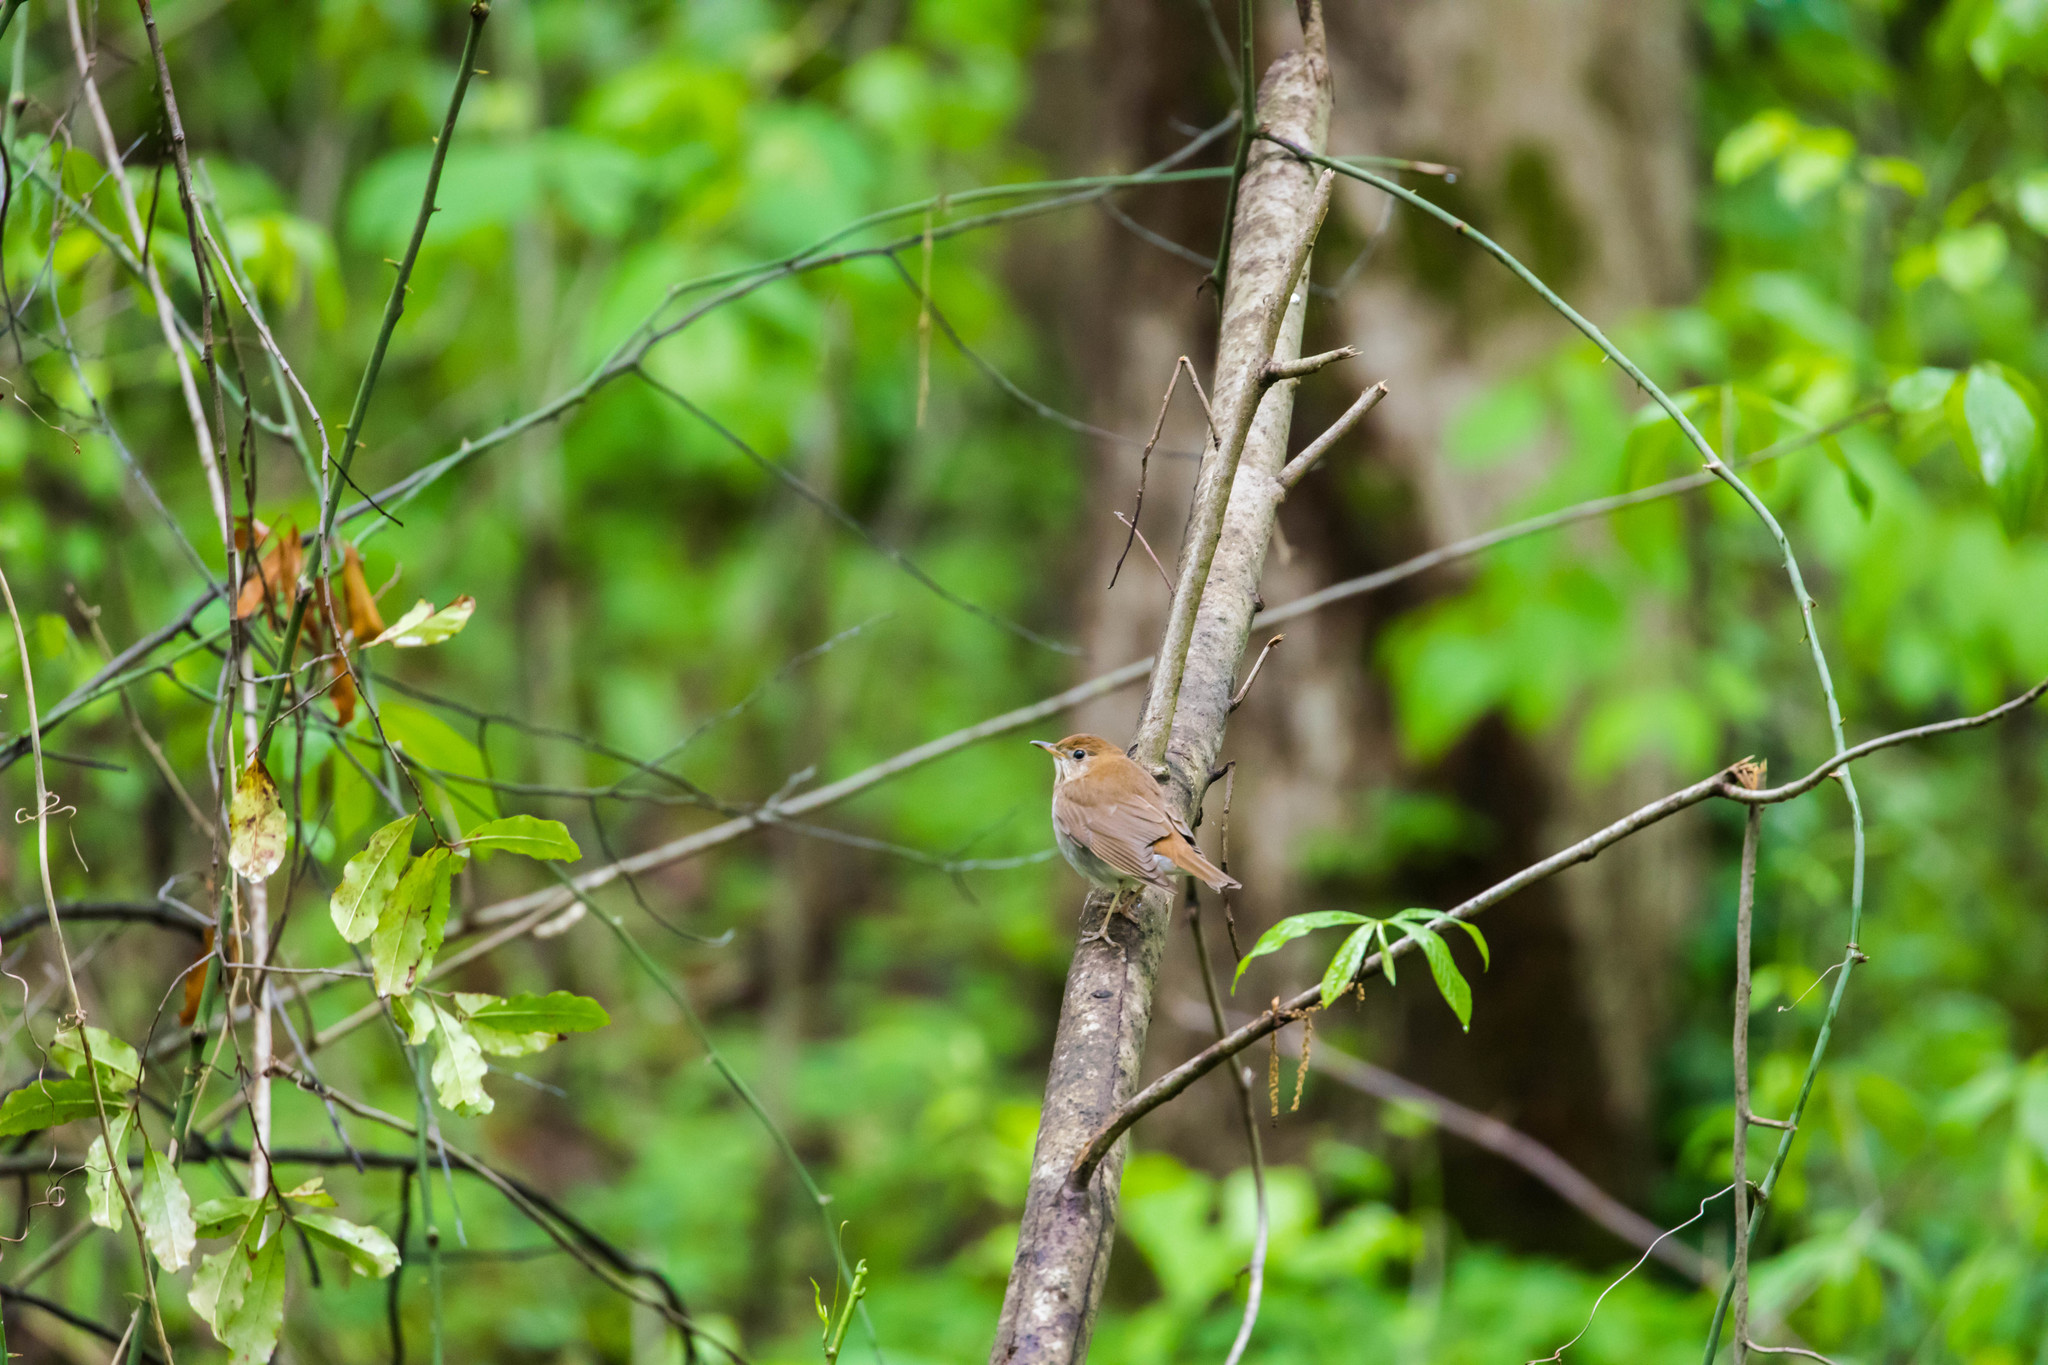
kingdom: Animalia
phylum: Chordata
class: Aves
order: Passeriformes
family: Turdidae
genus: Catharus
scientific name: Catharus fuscescens
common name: Veery
